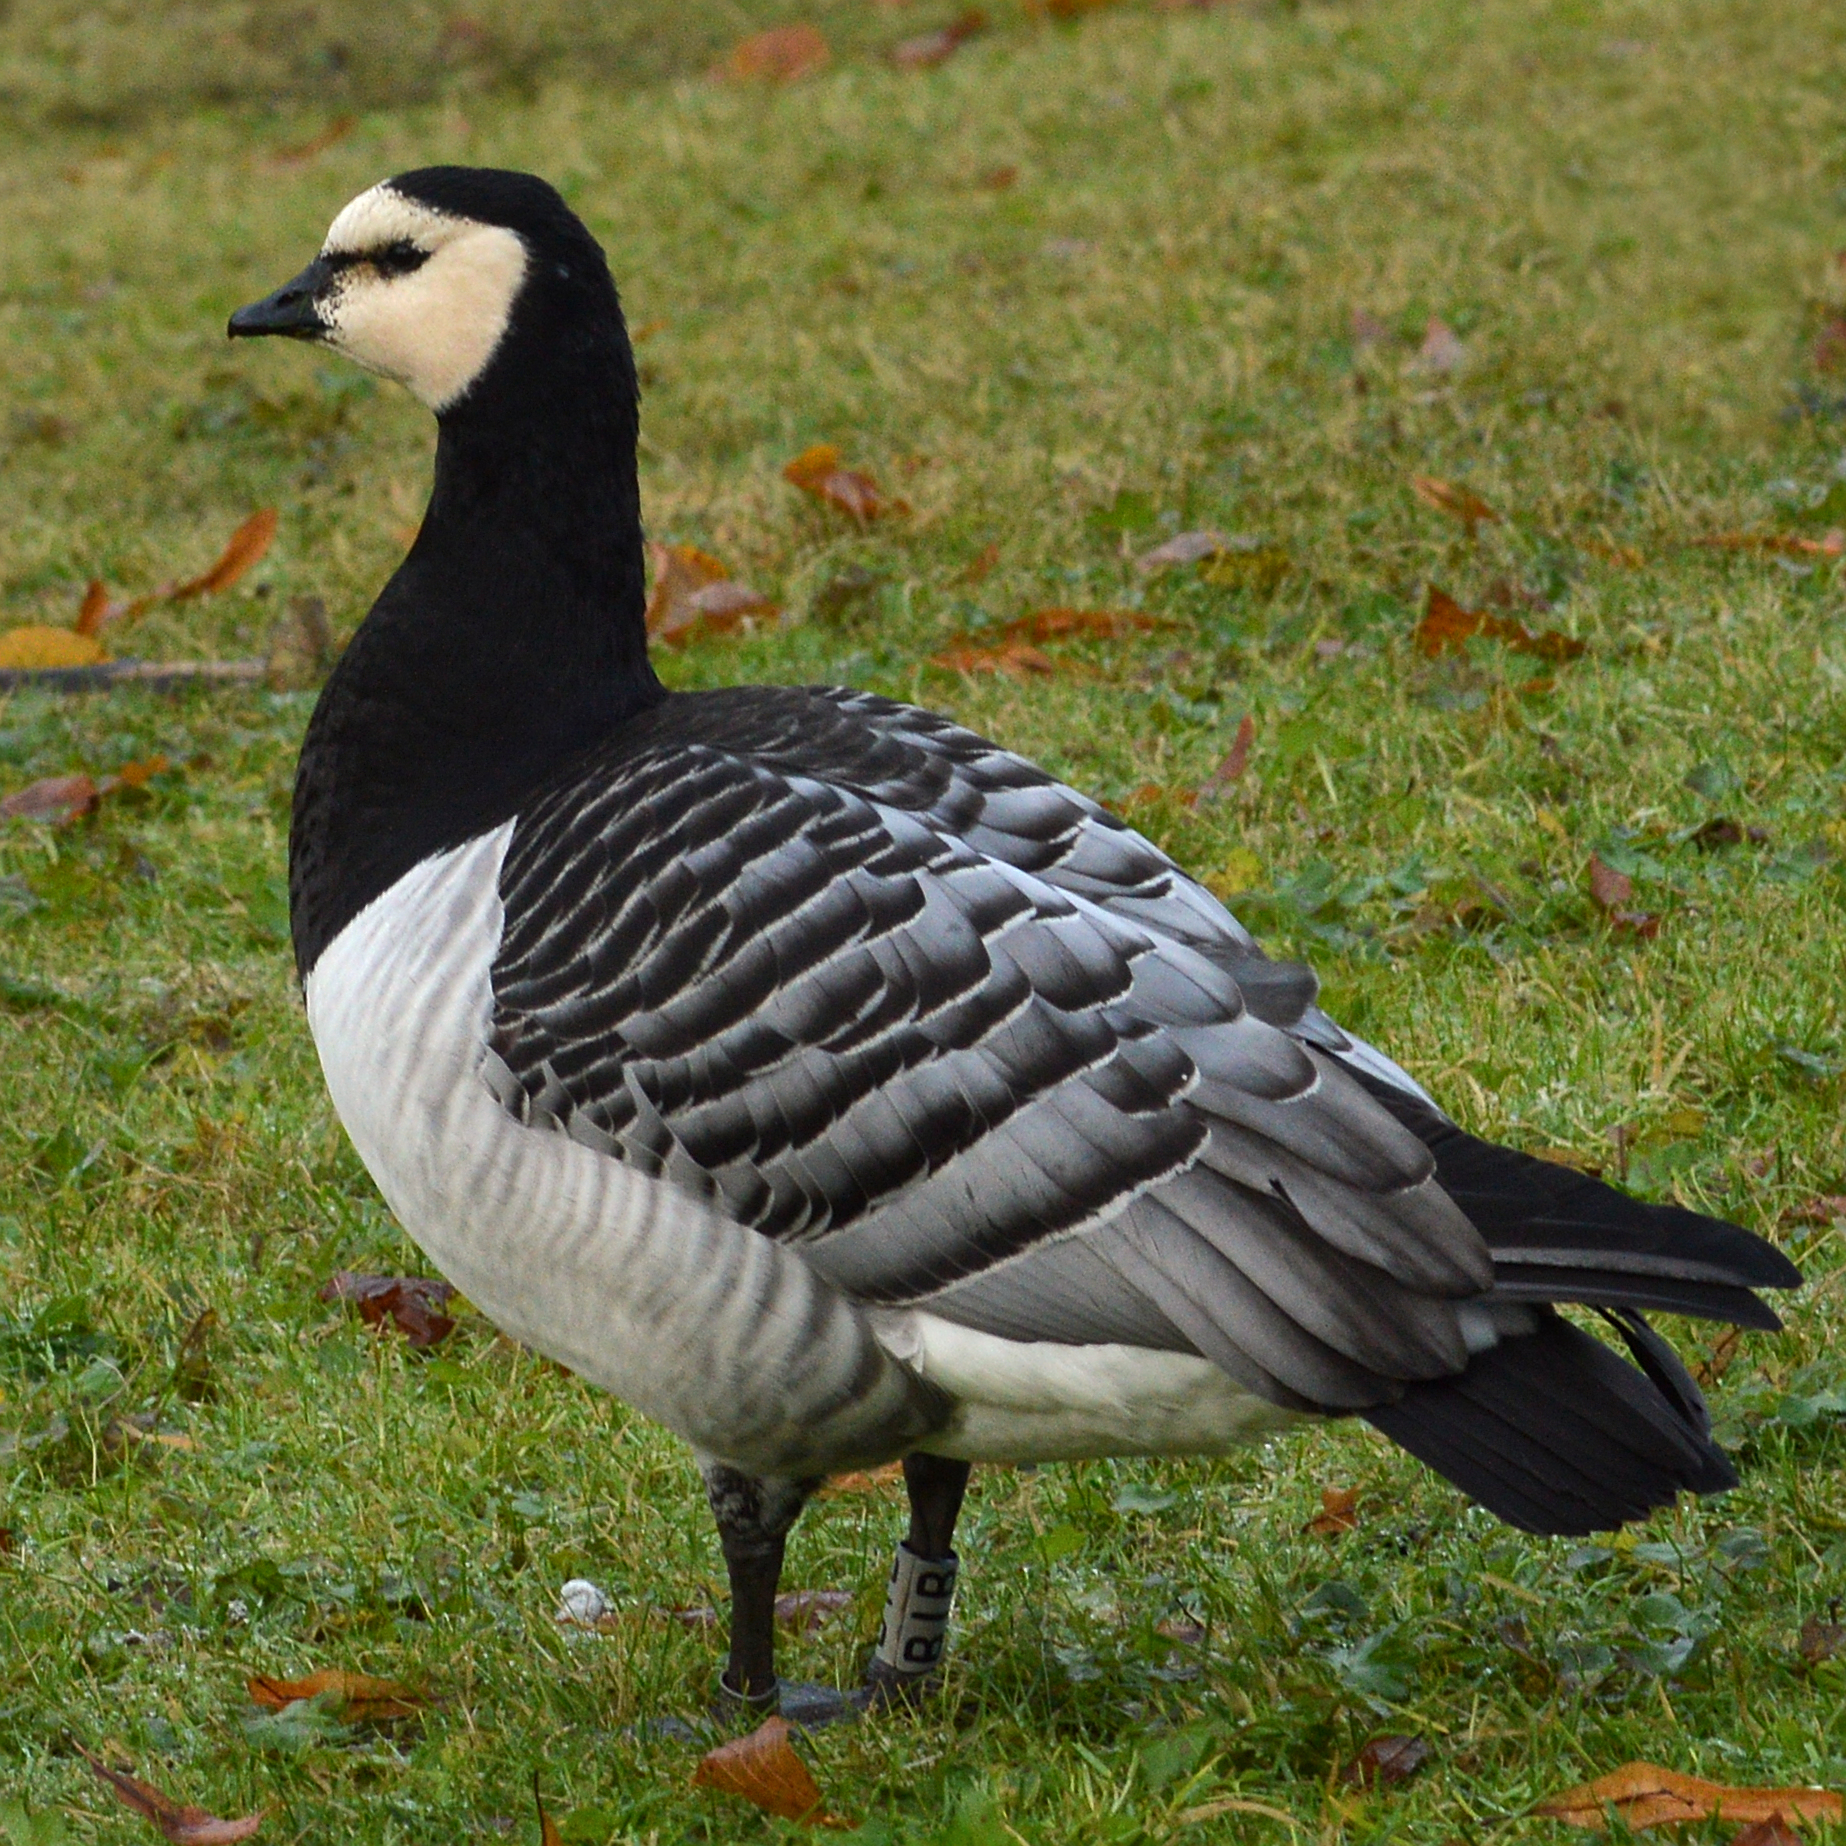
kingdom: Animalia
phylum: Chordata
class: Aves
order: Anseriformes
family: Anatidae
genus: Branta
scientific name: Branta leucopsis
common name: Barnacle goose
